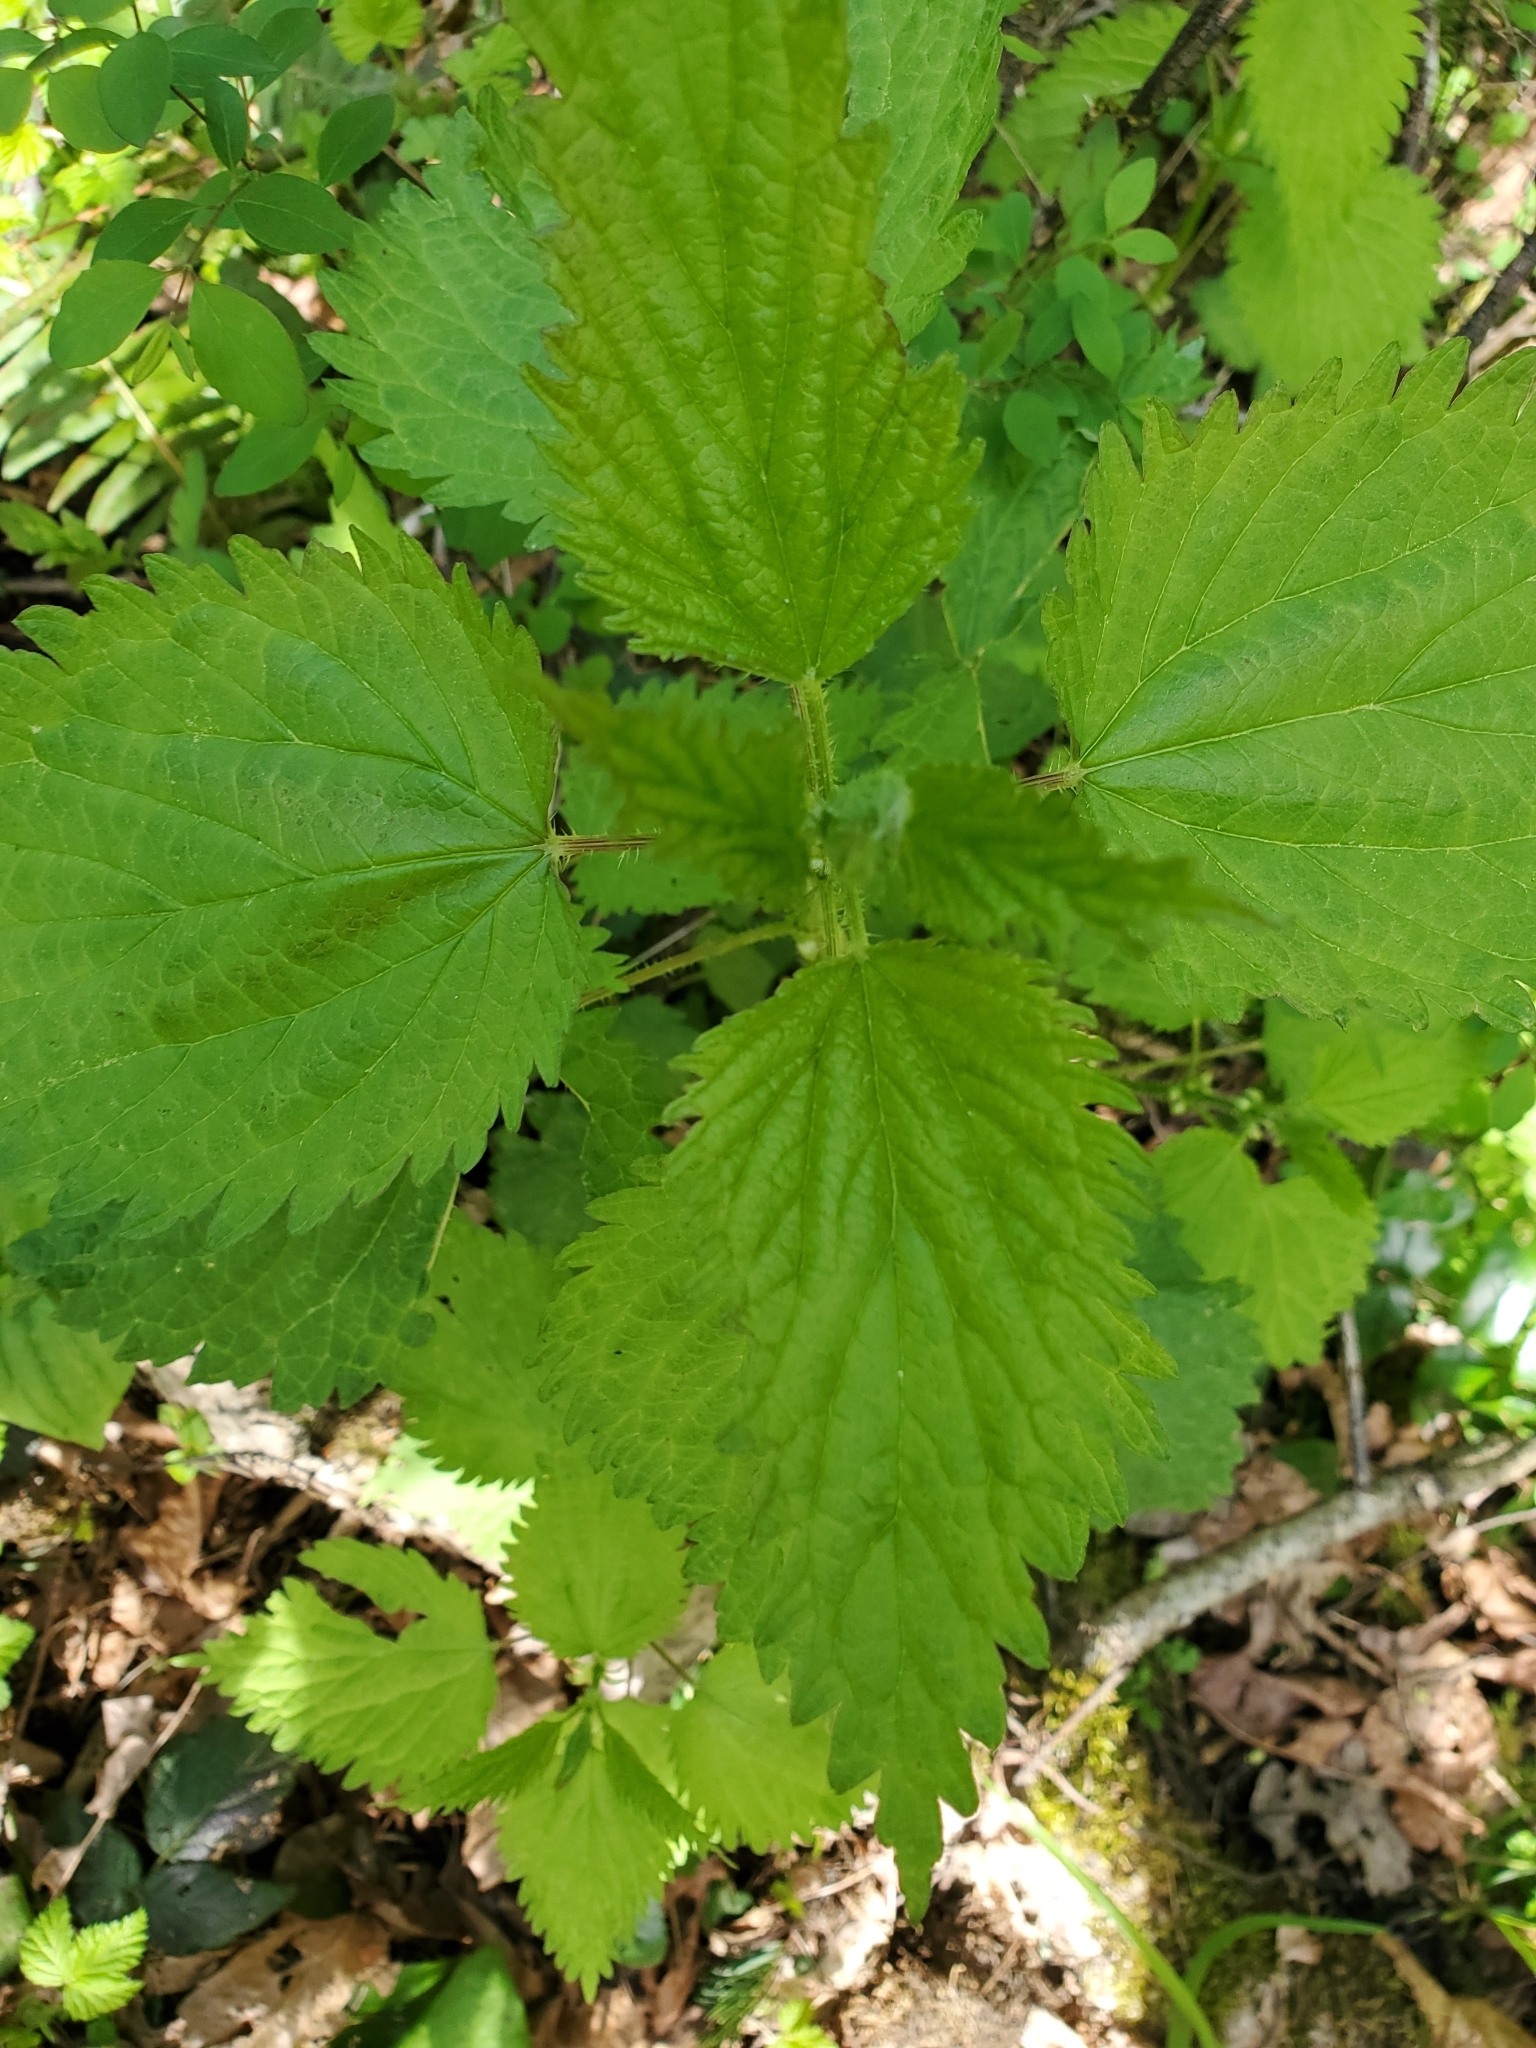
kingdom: Plantae
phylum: Tracheophyta
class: Magnoliopsida
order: Rosales
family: Urticaceae
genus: Urtica
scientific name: Urtica dioica
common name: Common nettle
